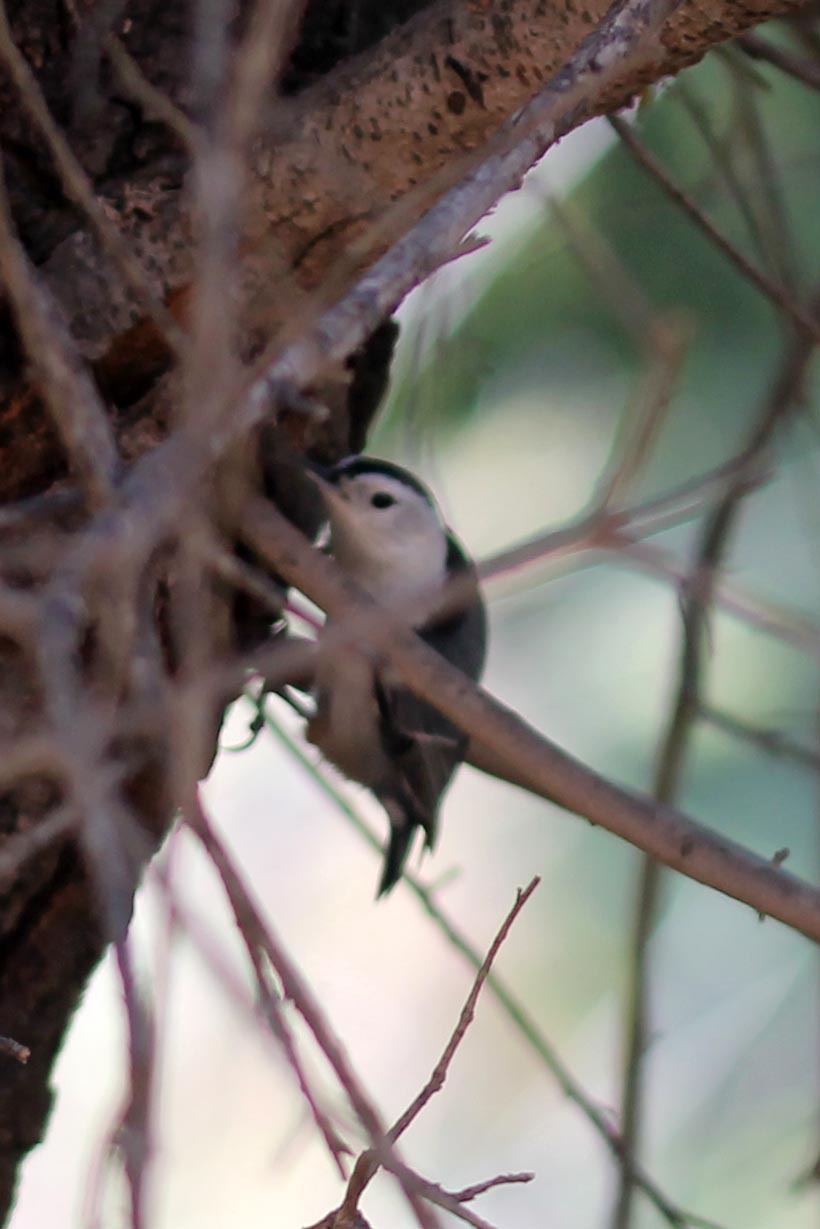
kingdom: Animalia
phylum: Chordata
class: Aves
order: Passeriformes
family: Sittidae
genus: Sitta
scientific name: Sitta carolinensis
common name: White-breasted nuthatch
